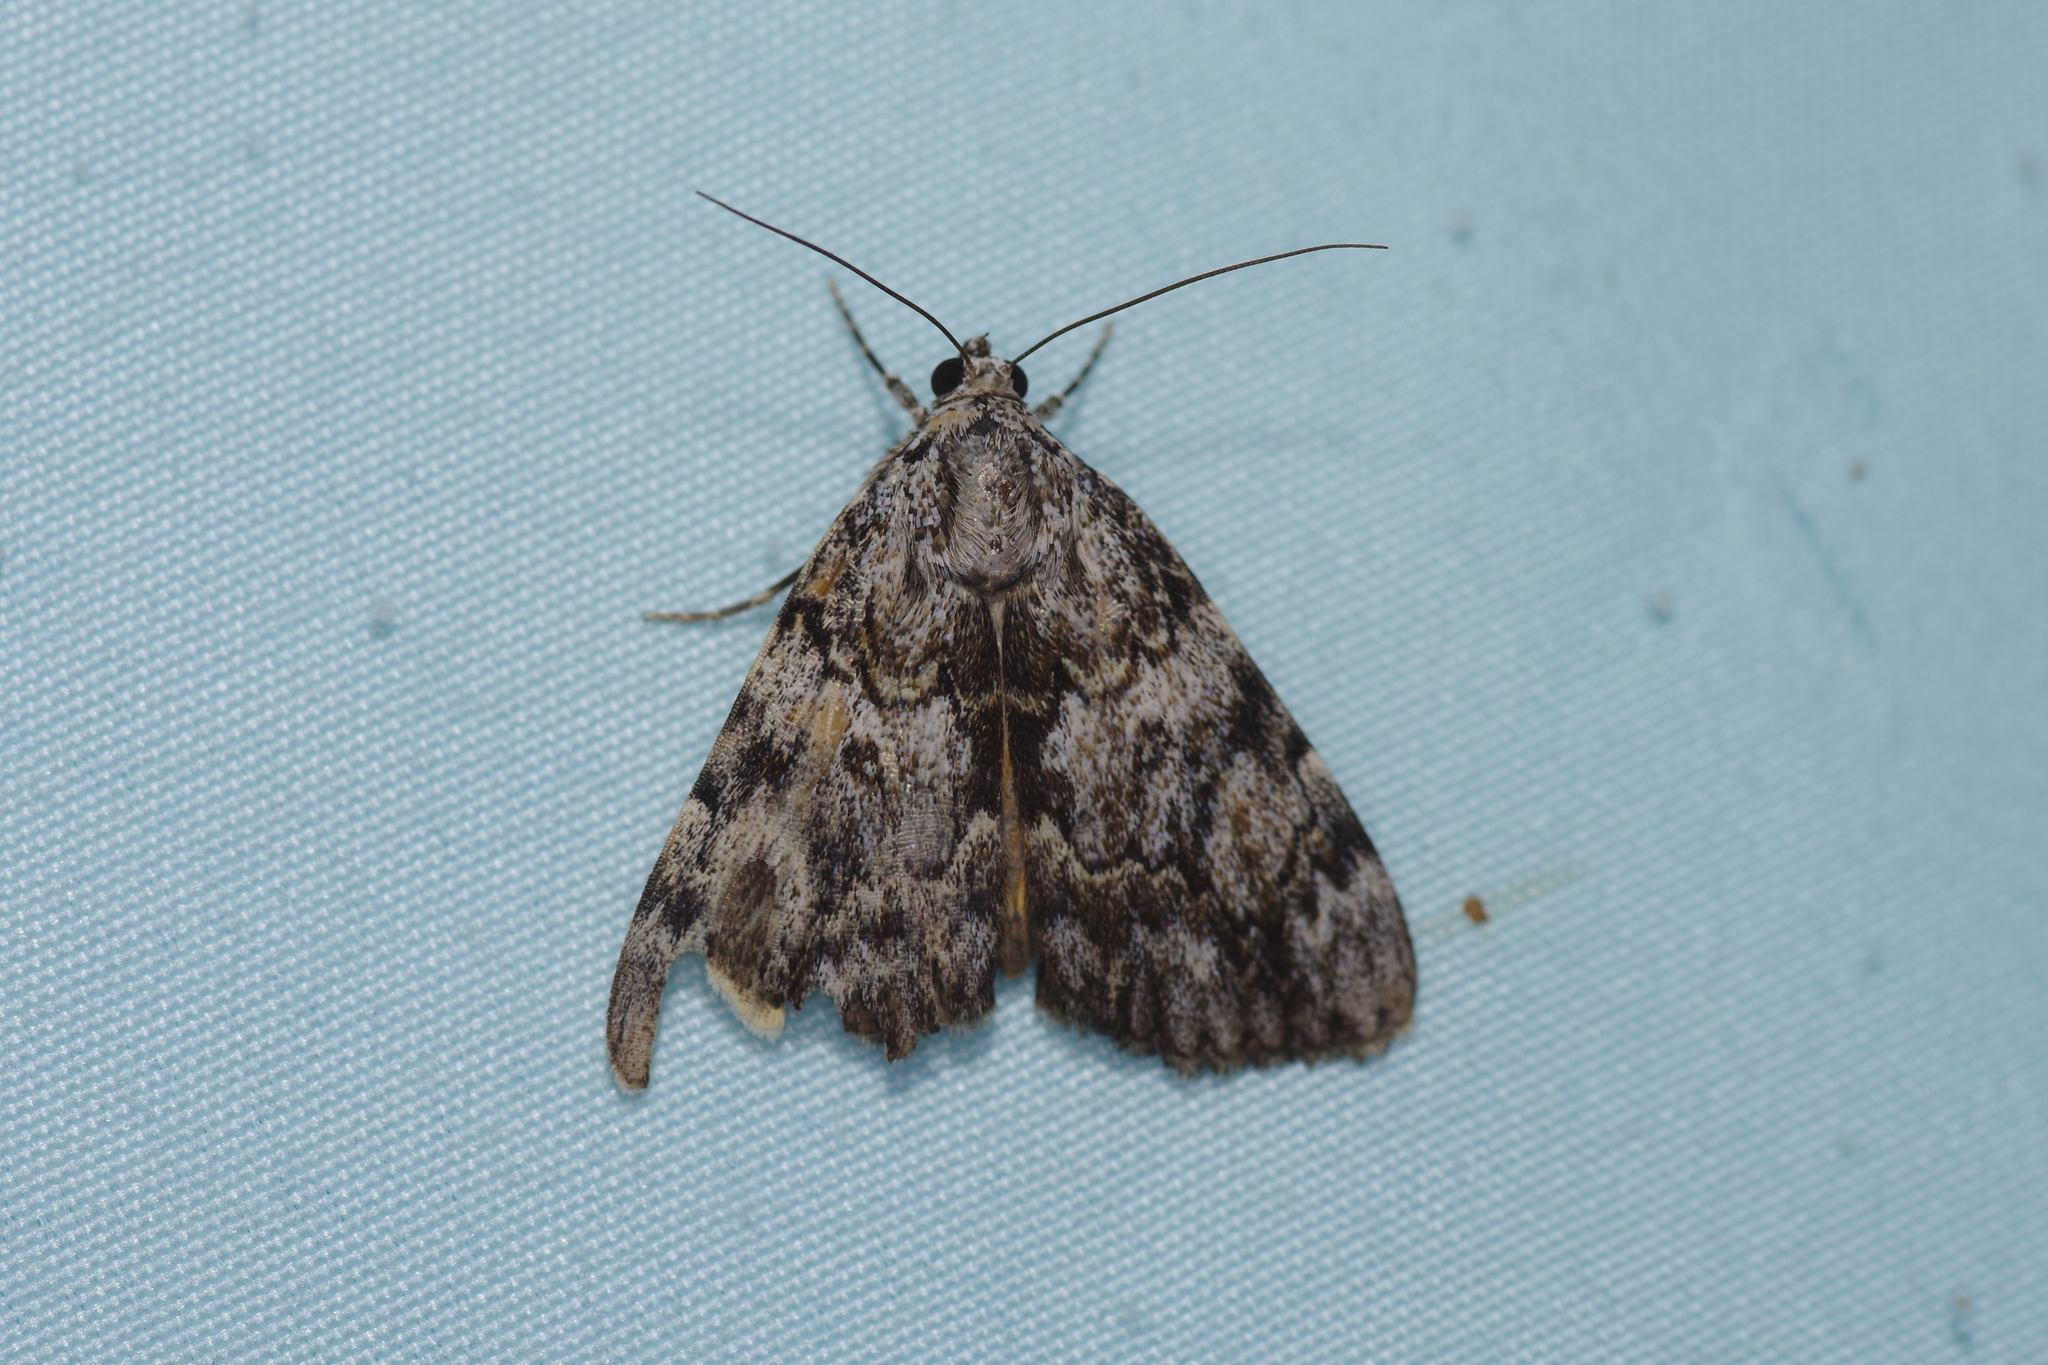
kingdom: Animalia
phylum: Arthropoda
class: Insecta
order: Lepidoptera
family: Erebidae
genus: Catocala
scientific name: Catocala jair
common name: Jair underwing
